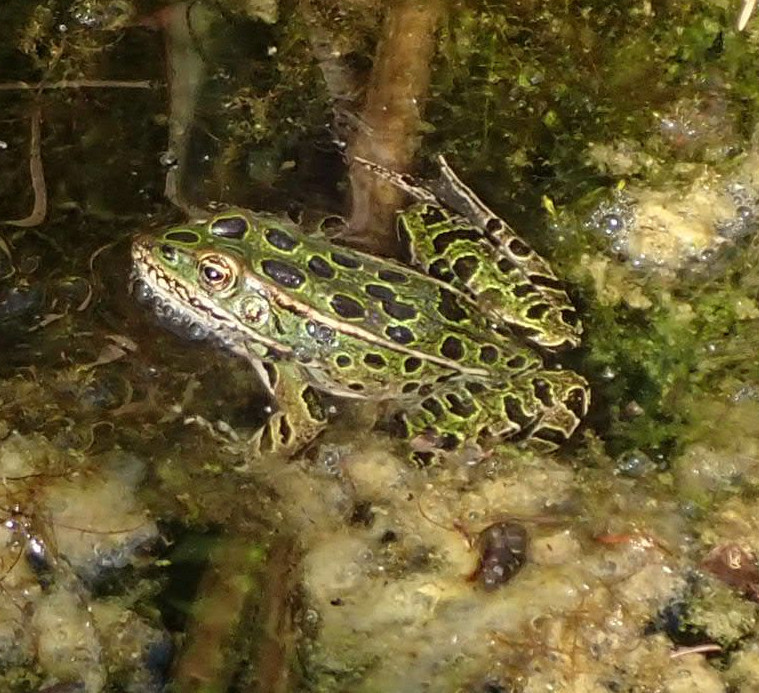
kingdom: Animalia
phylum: Chordata
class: Amphibia
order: Anura
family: Ranidae
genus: Lithobates
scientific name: Lithobates pipiens
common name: Northern leopard frog
